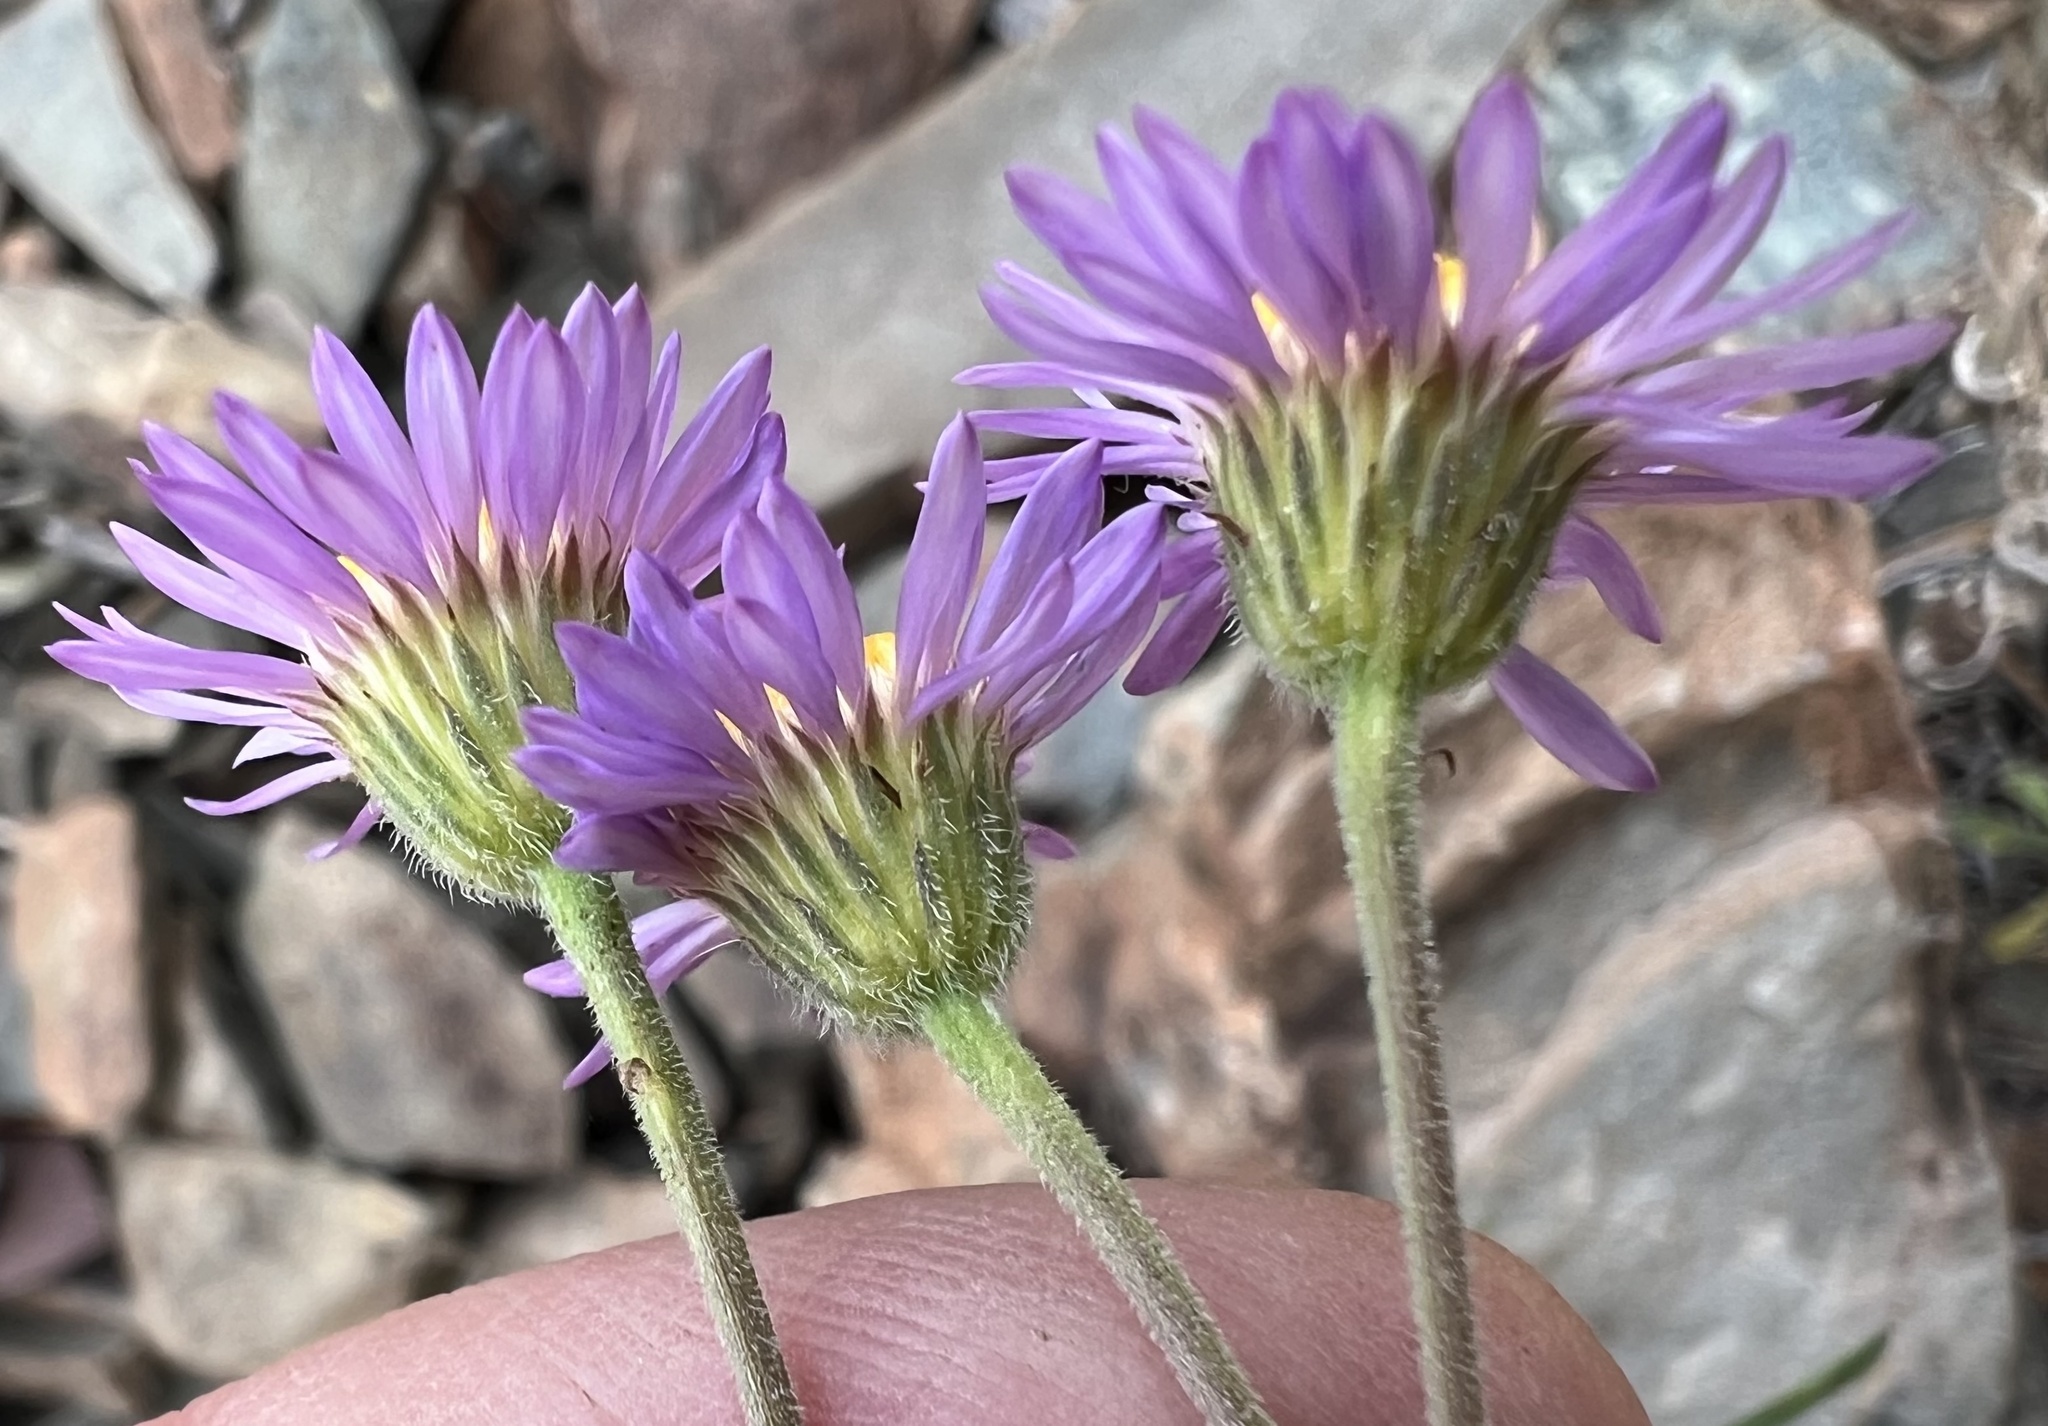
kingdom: Plantae
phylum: Tracheophyta
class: Magnoliopsida
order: Asterales
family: Asteraceae
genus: Erigeron
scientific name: Erigeron breweri
